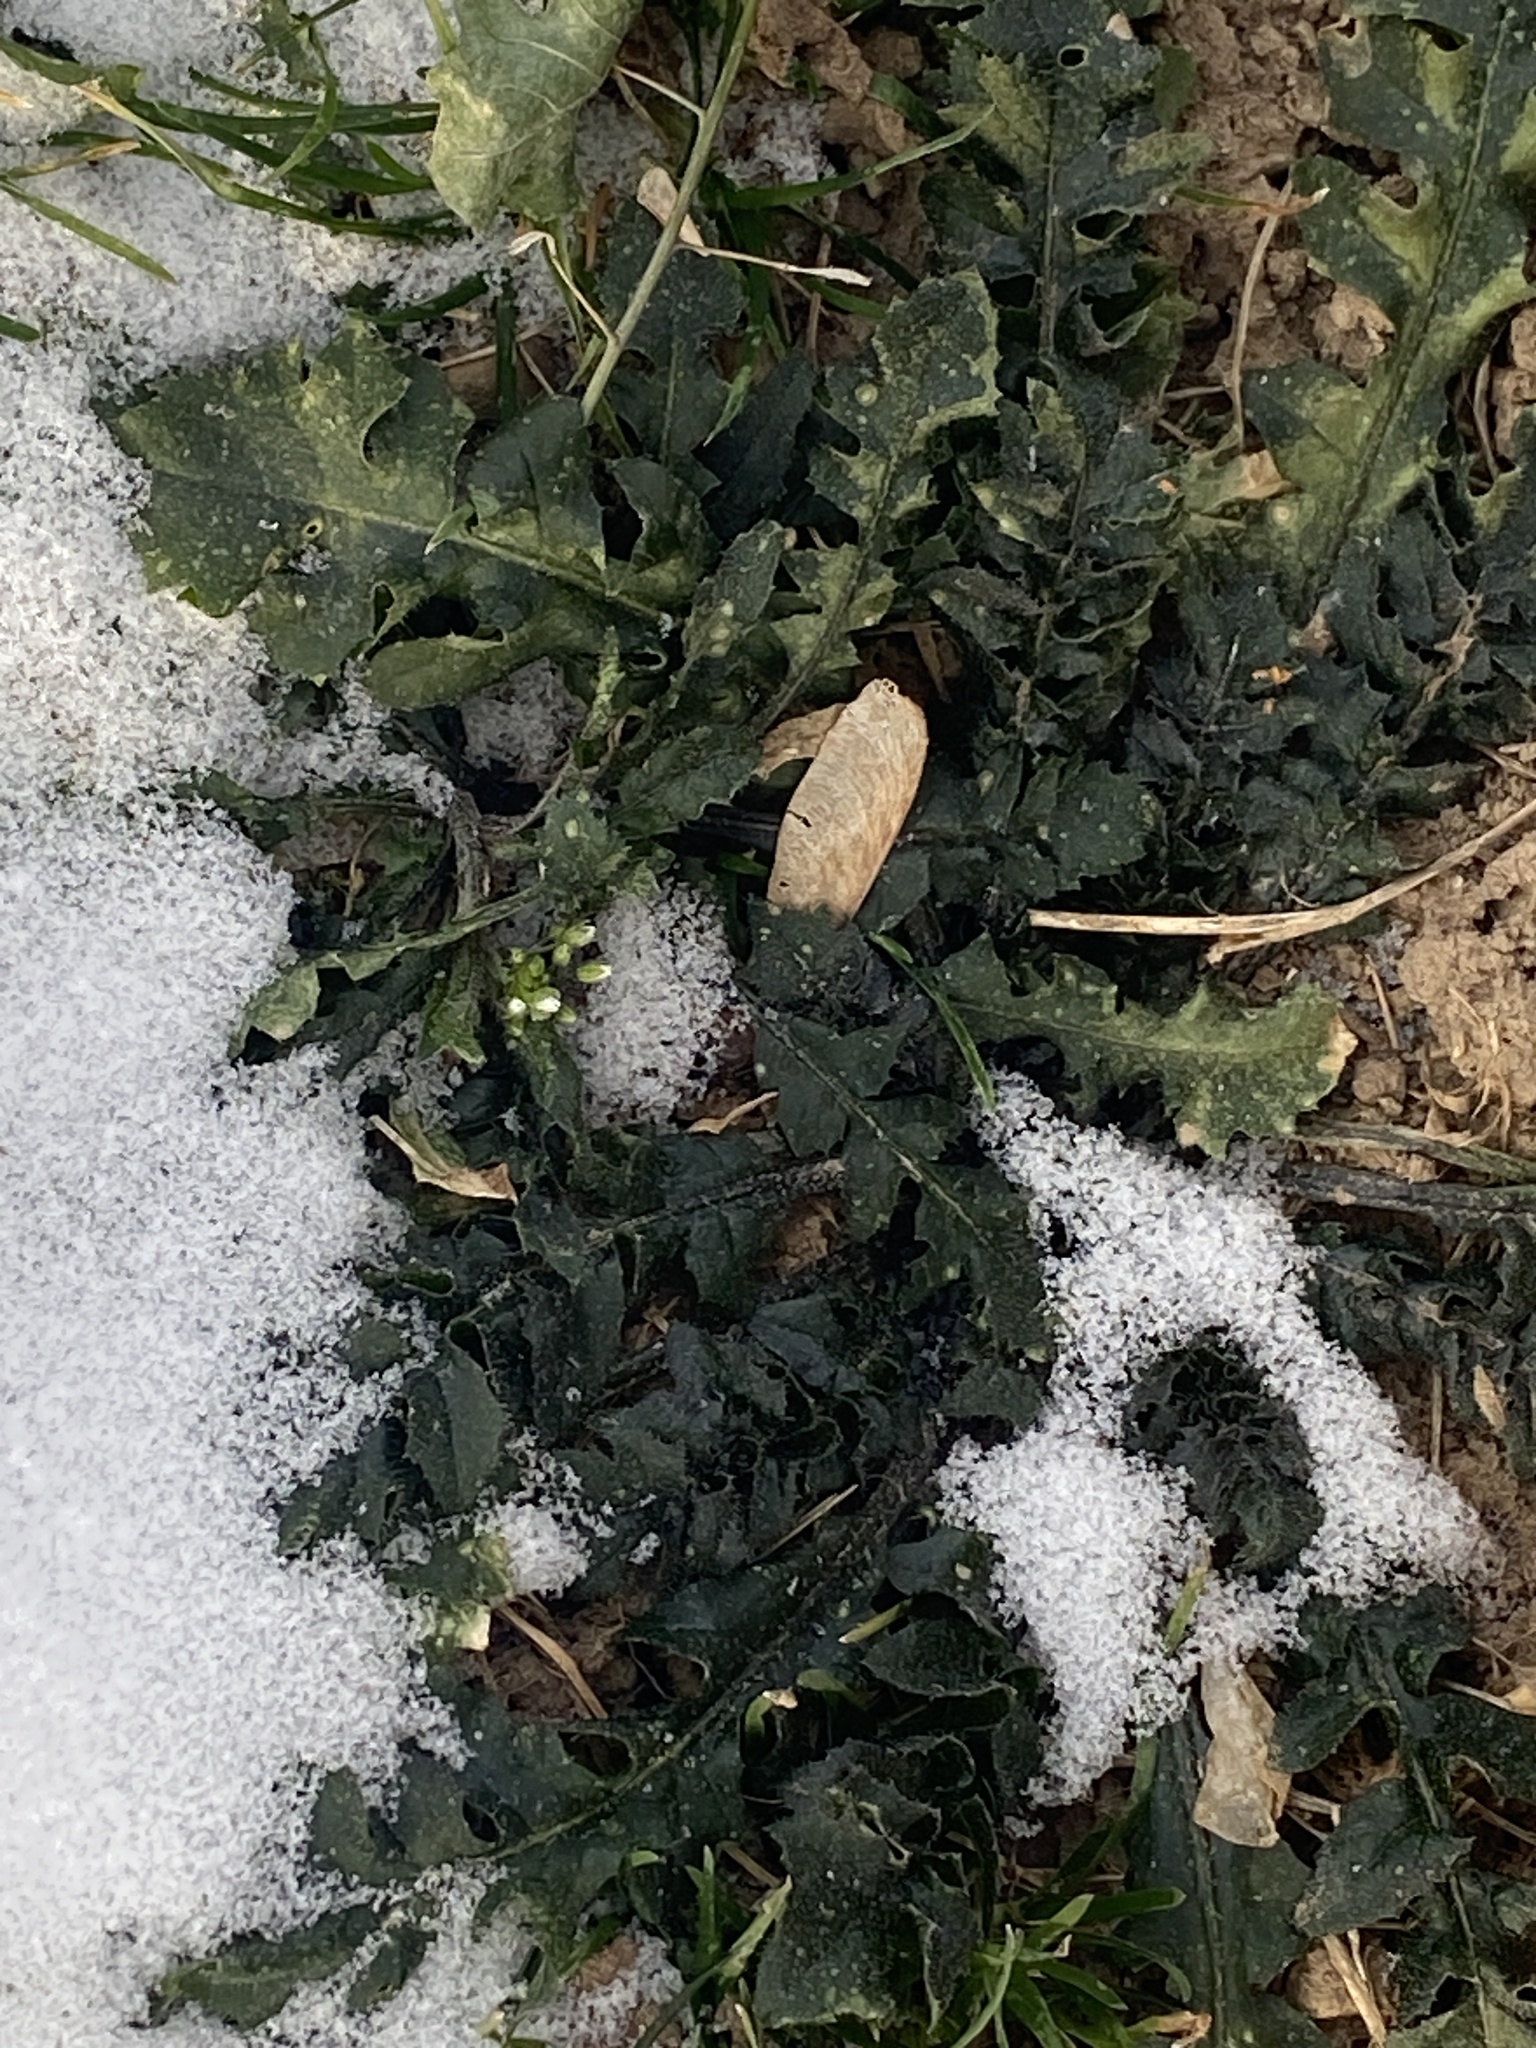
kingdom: Plantae
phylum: Tracheophyta
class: Magnoliopsida
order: Brassicales
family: Brassicaceae
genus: Capsella
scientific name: Capsella bursa-pastoris
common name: Shepherd's purse
